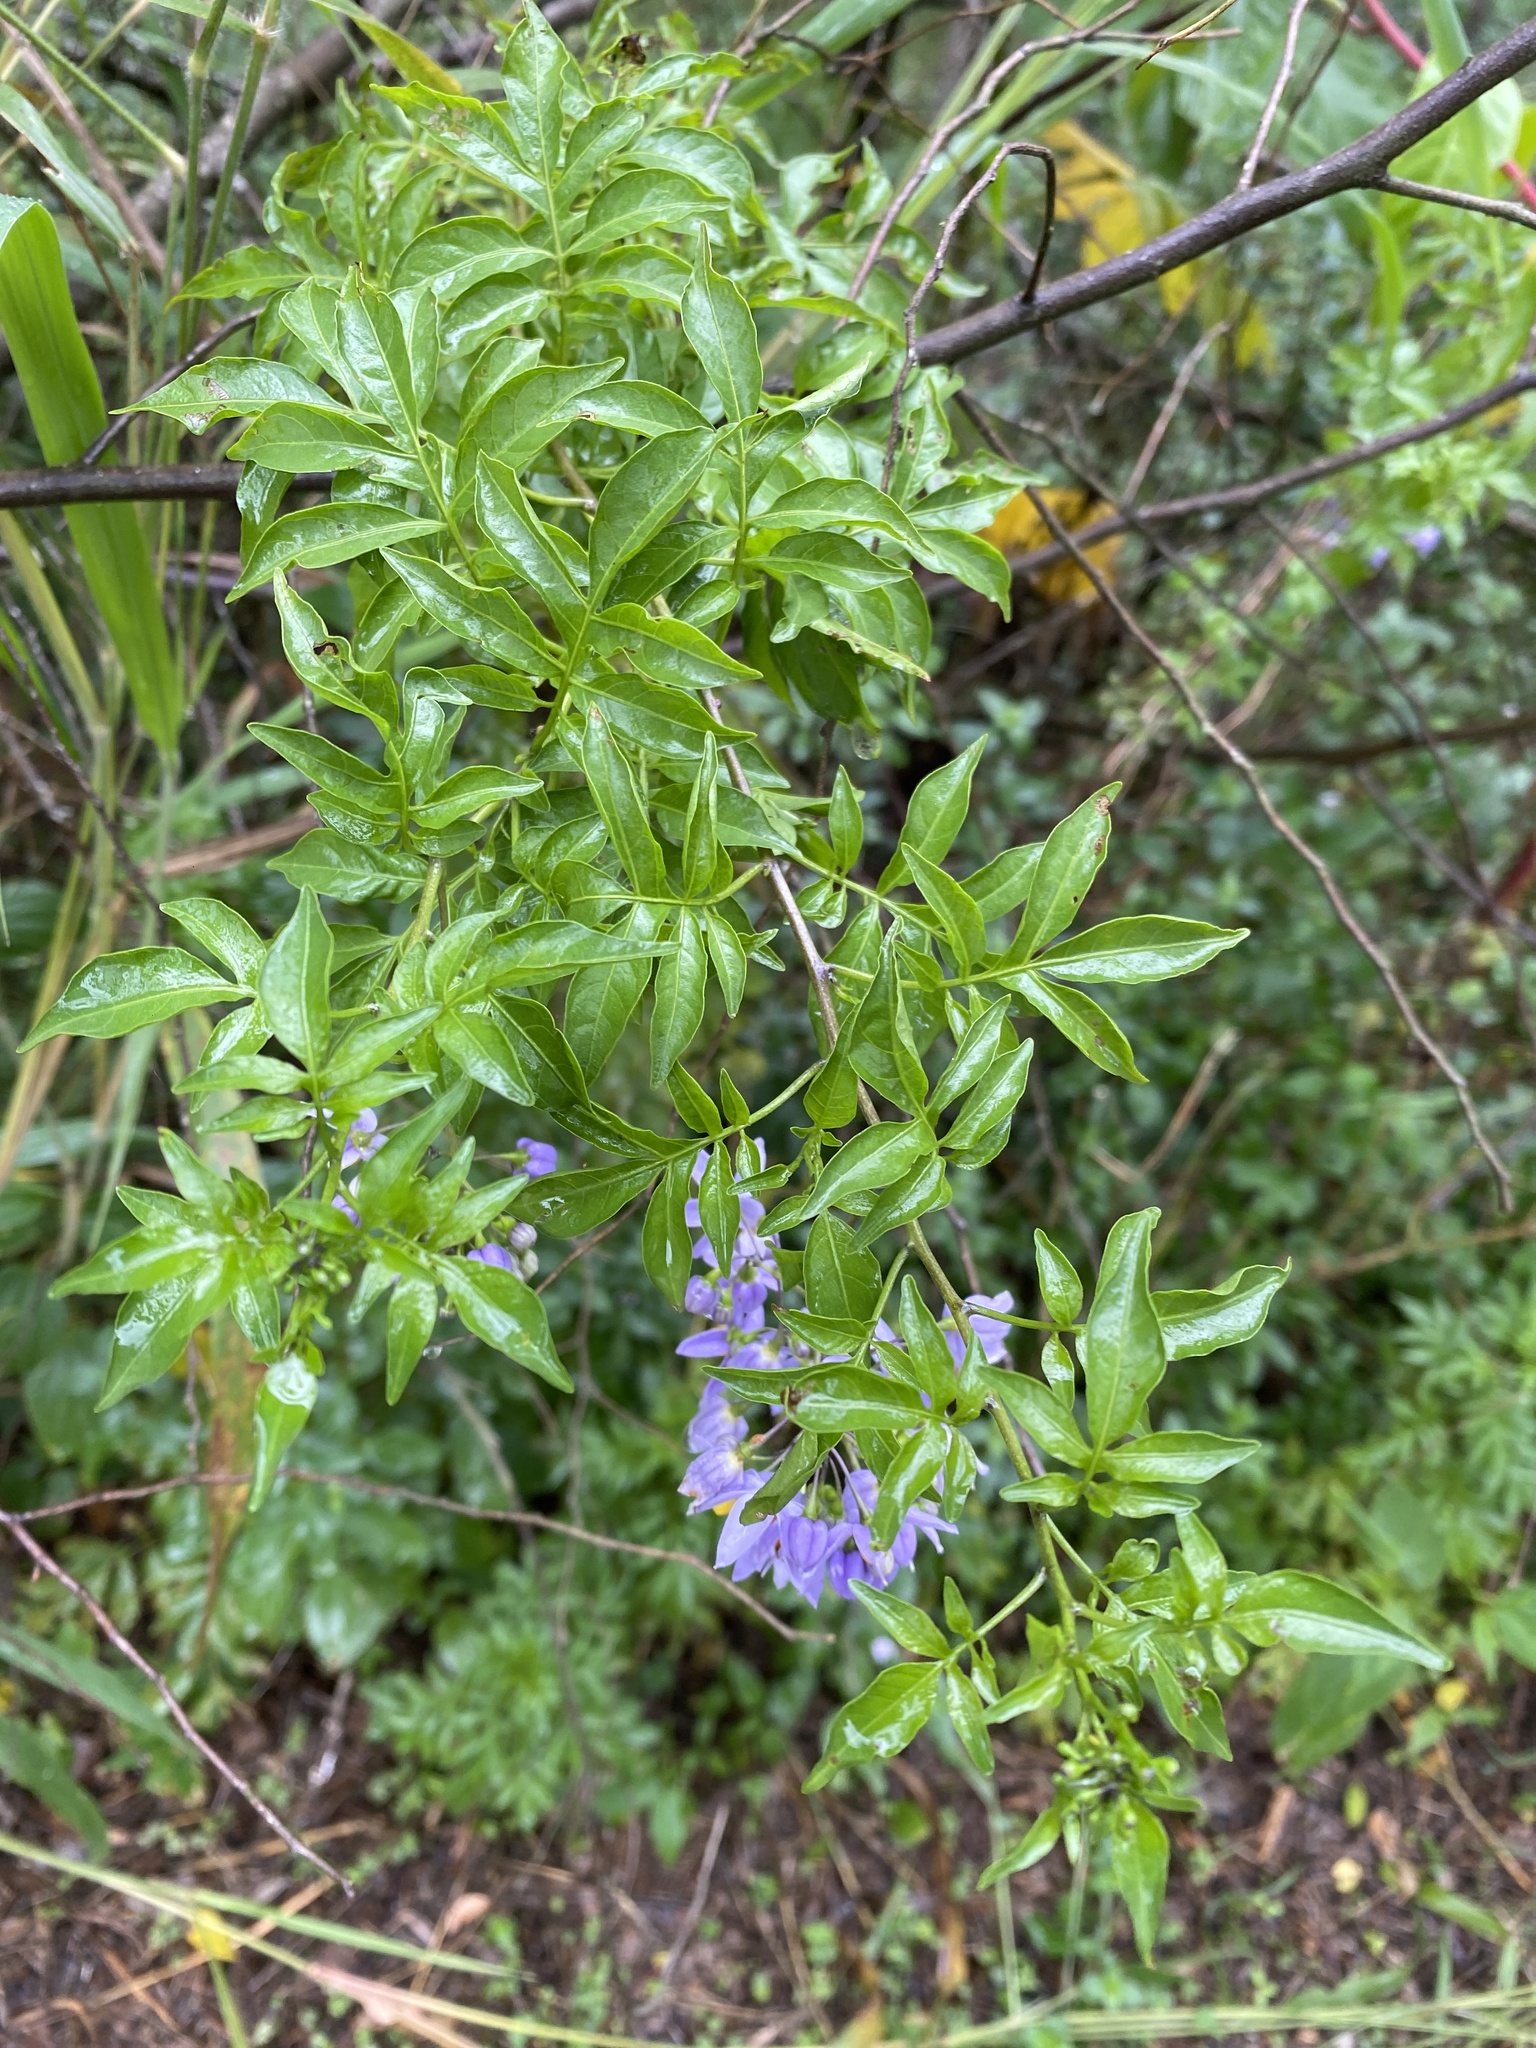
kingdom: Plantae
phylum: Tracheophyta
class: Magnoliopsida
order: Solanales
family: Solanaceae
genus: Solanum
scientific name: Solanum seaforthianum
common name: Brazilian nightshade
